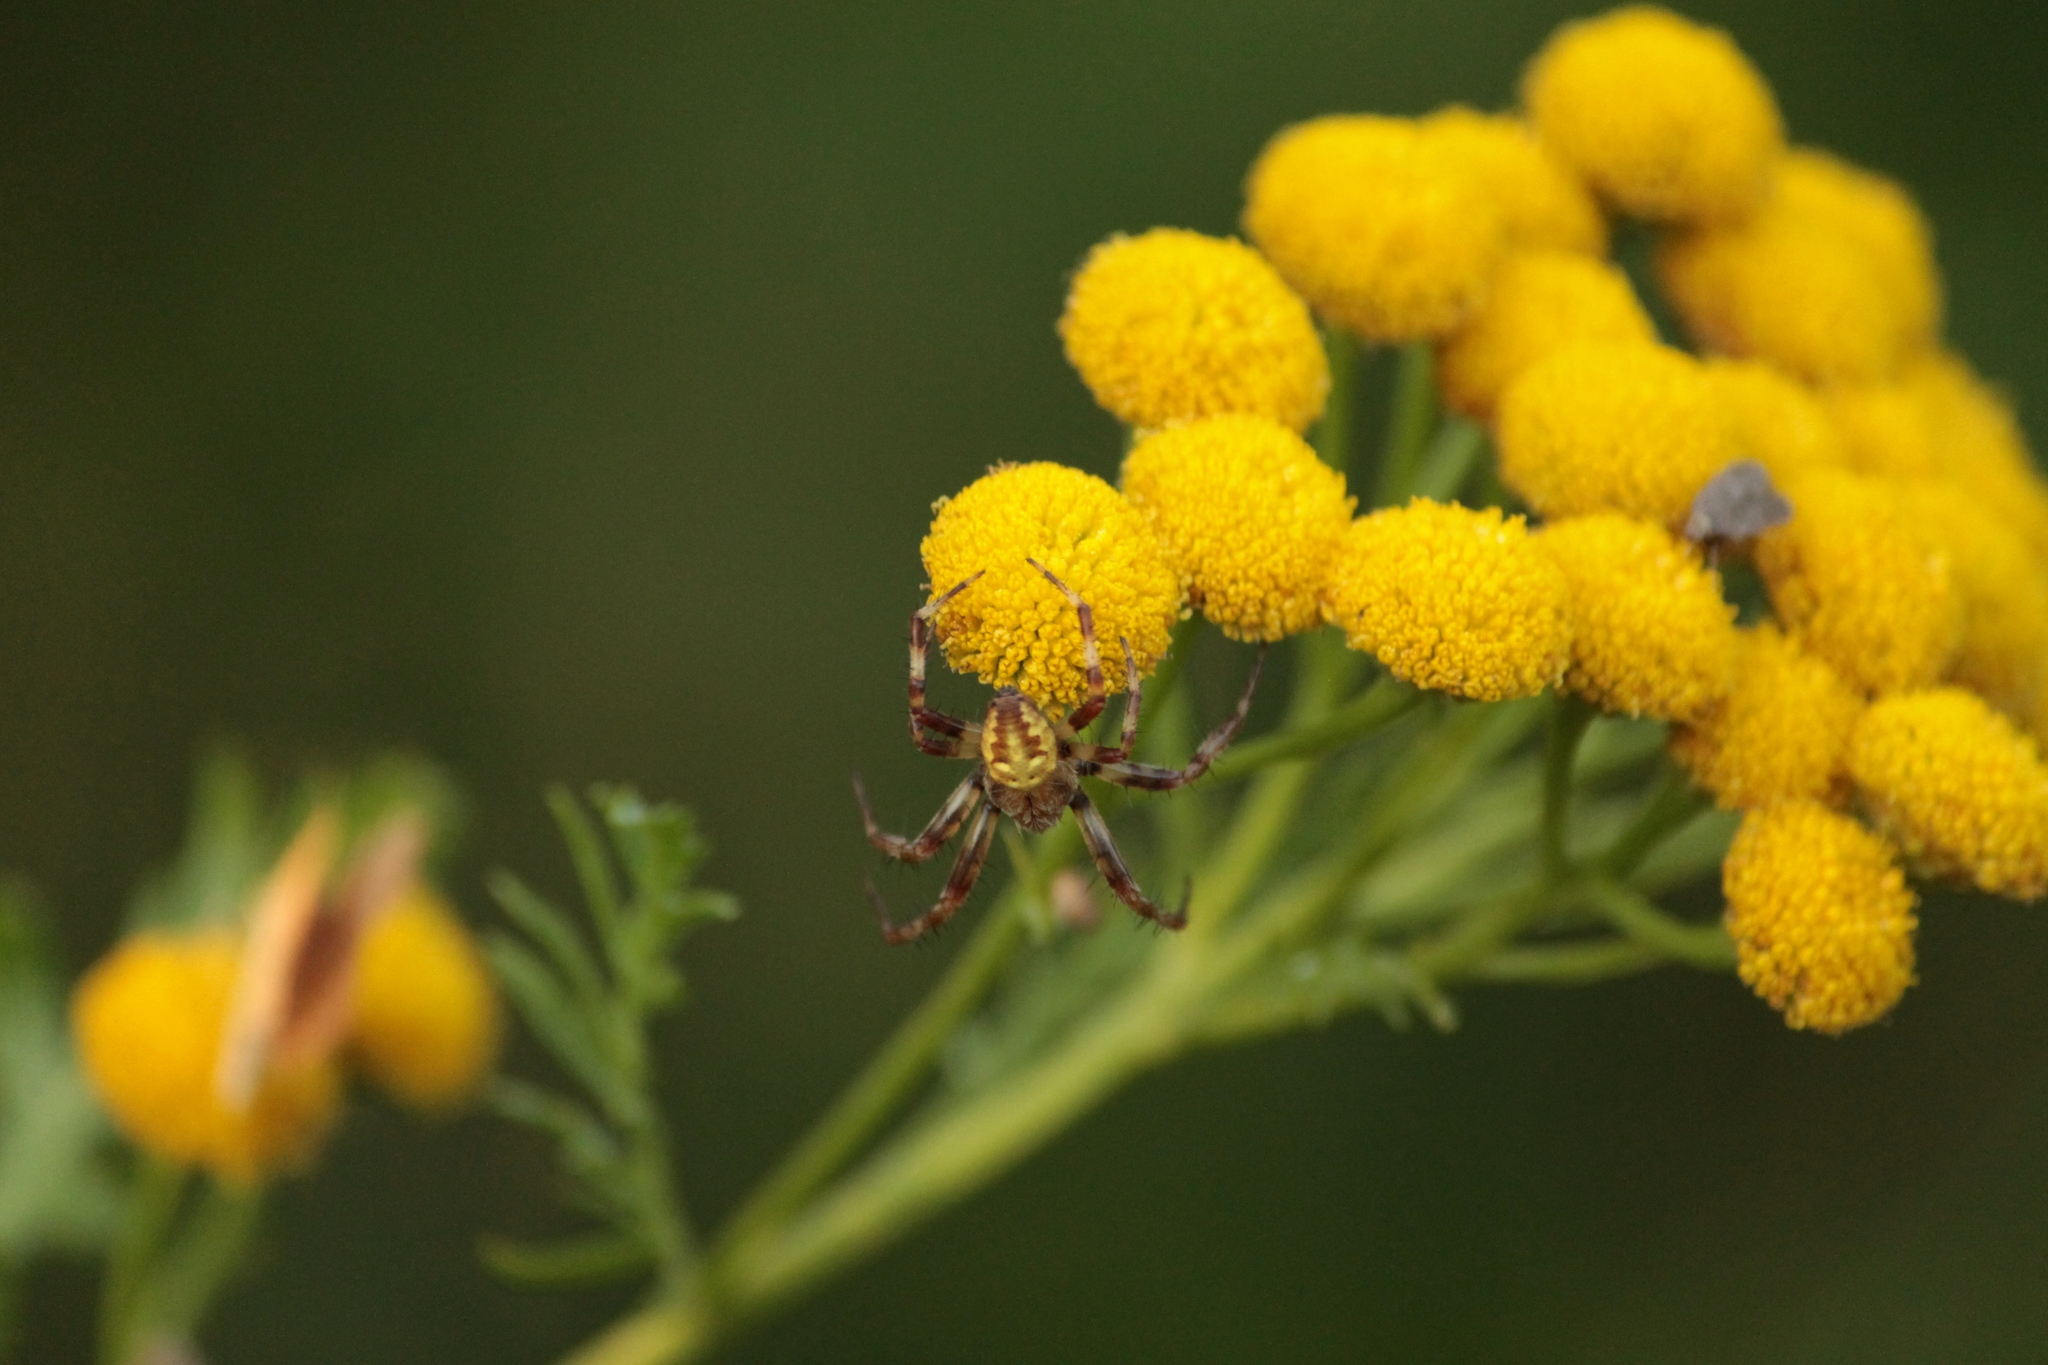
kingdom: Animalia
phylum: Arthropoda
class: Arachnida
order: Araneae
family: Araneidae
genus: Araneus
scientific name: Araneus quadratus
